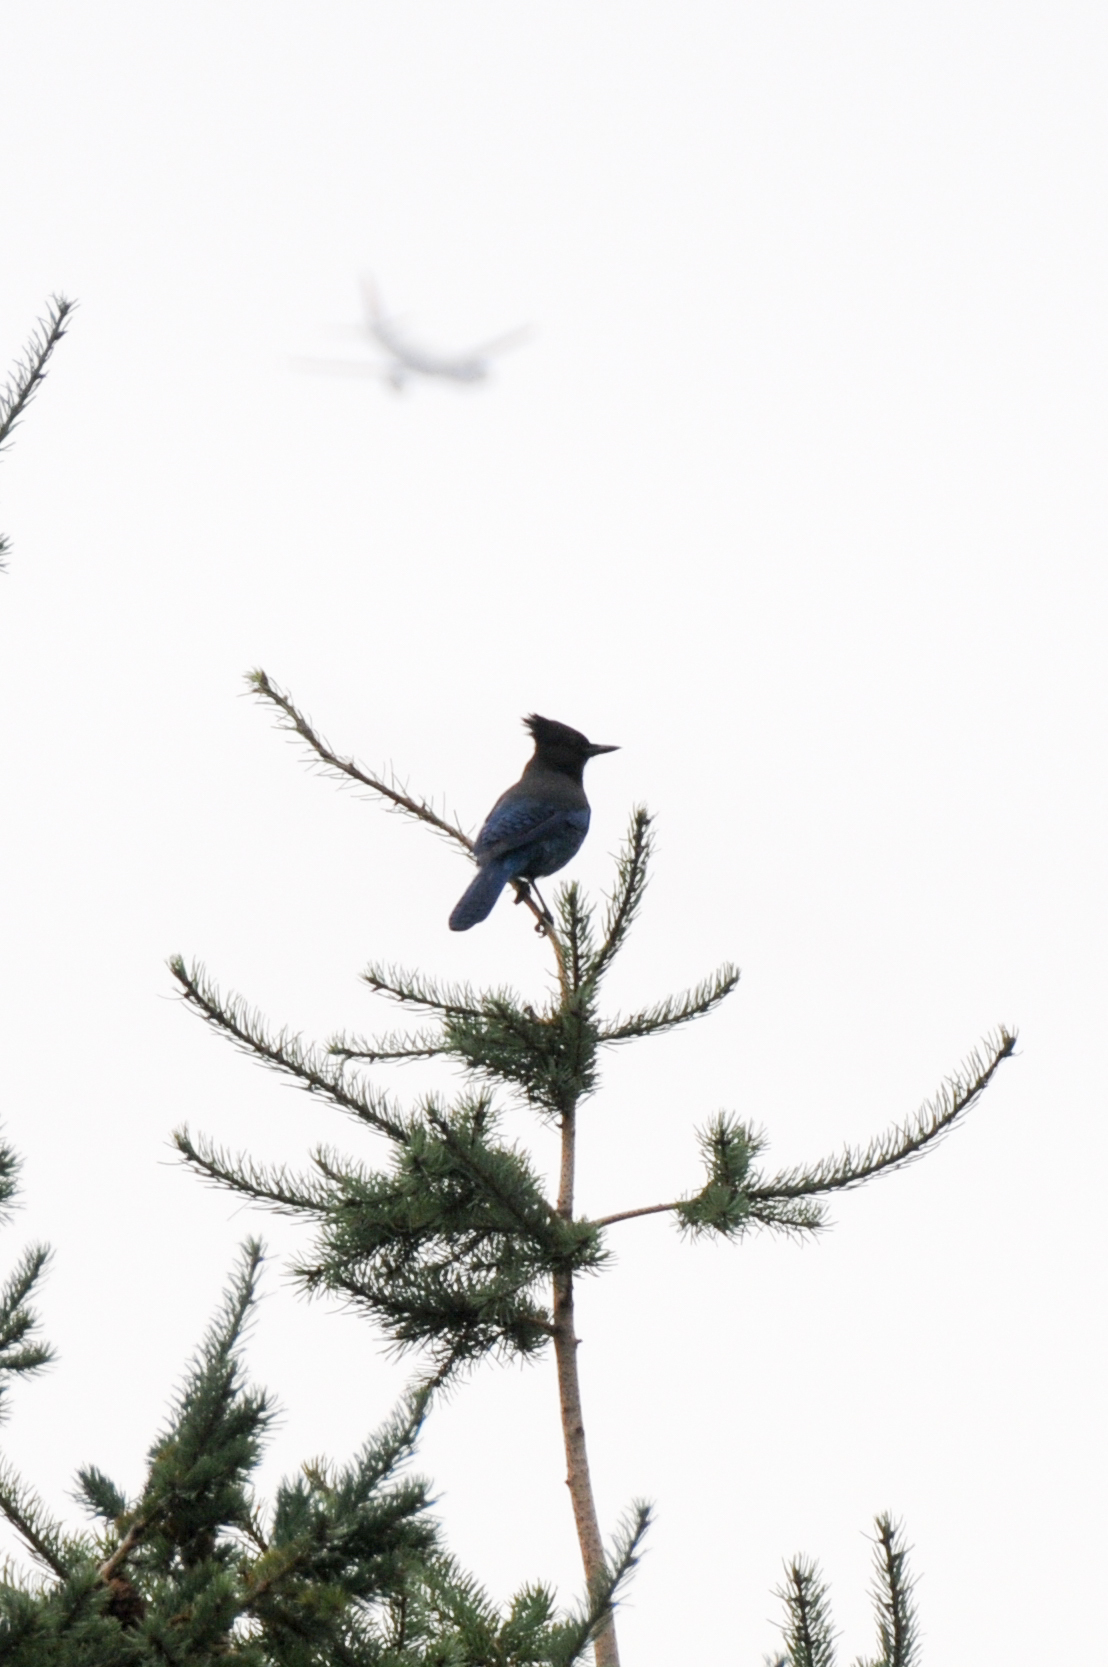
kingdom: Animalia
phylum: Chordata
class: Aves
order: Passeriformes
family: Corvidae
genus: Cyanocitta
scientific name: Cyanocitta stelleri
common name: Steller's jay
